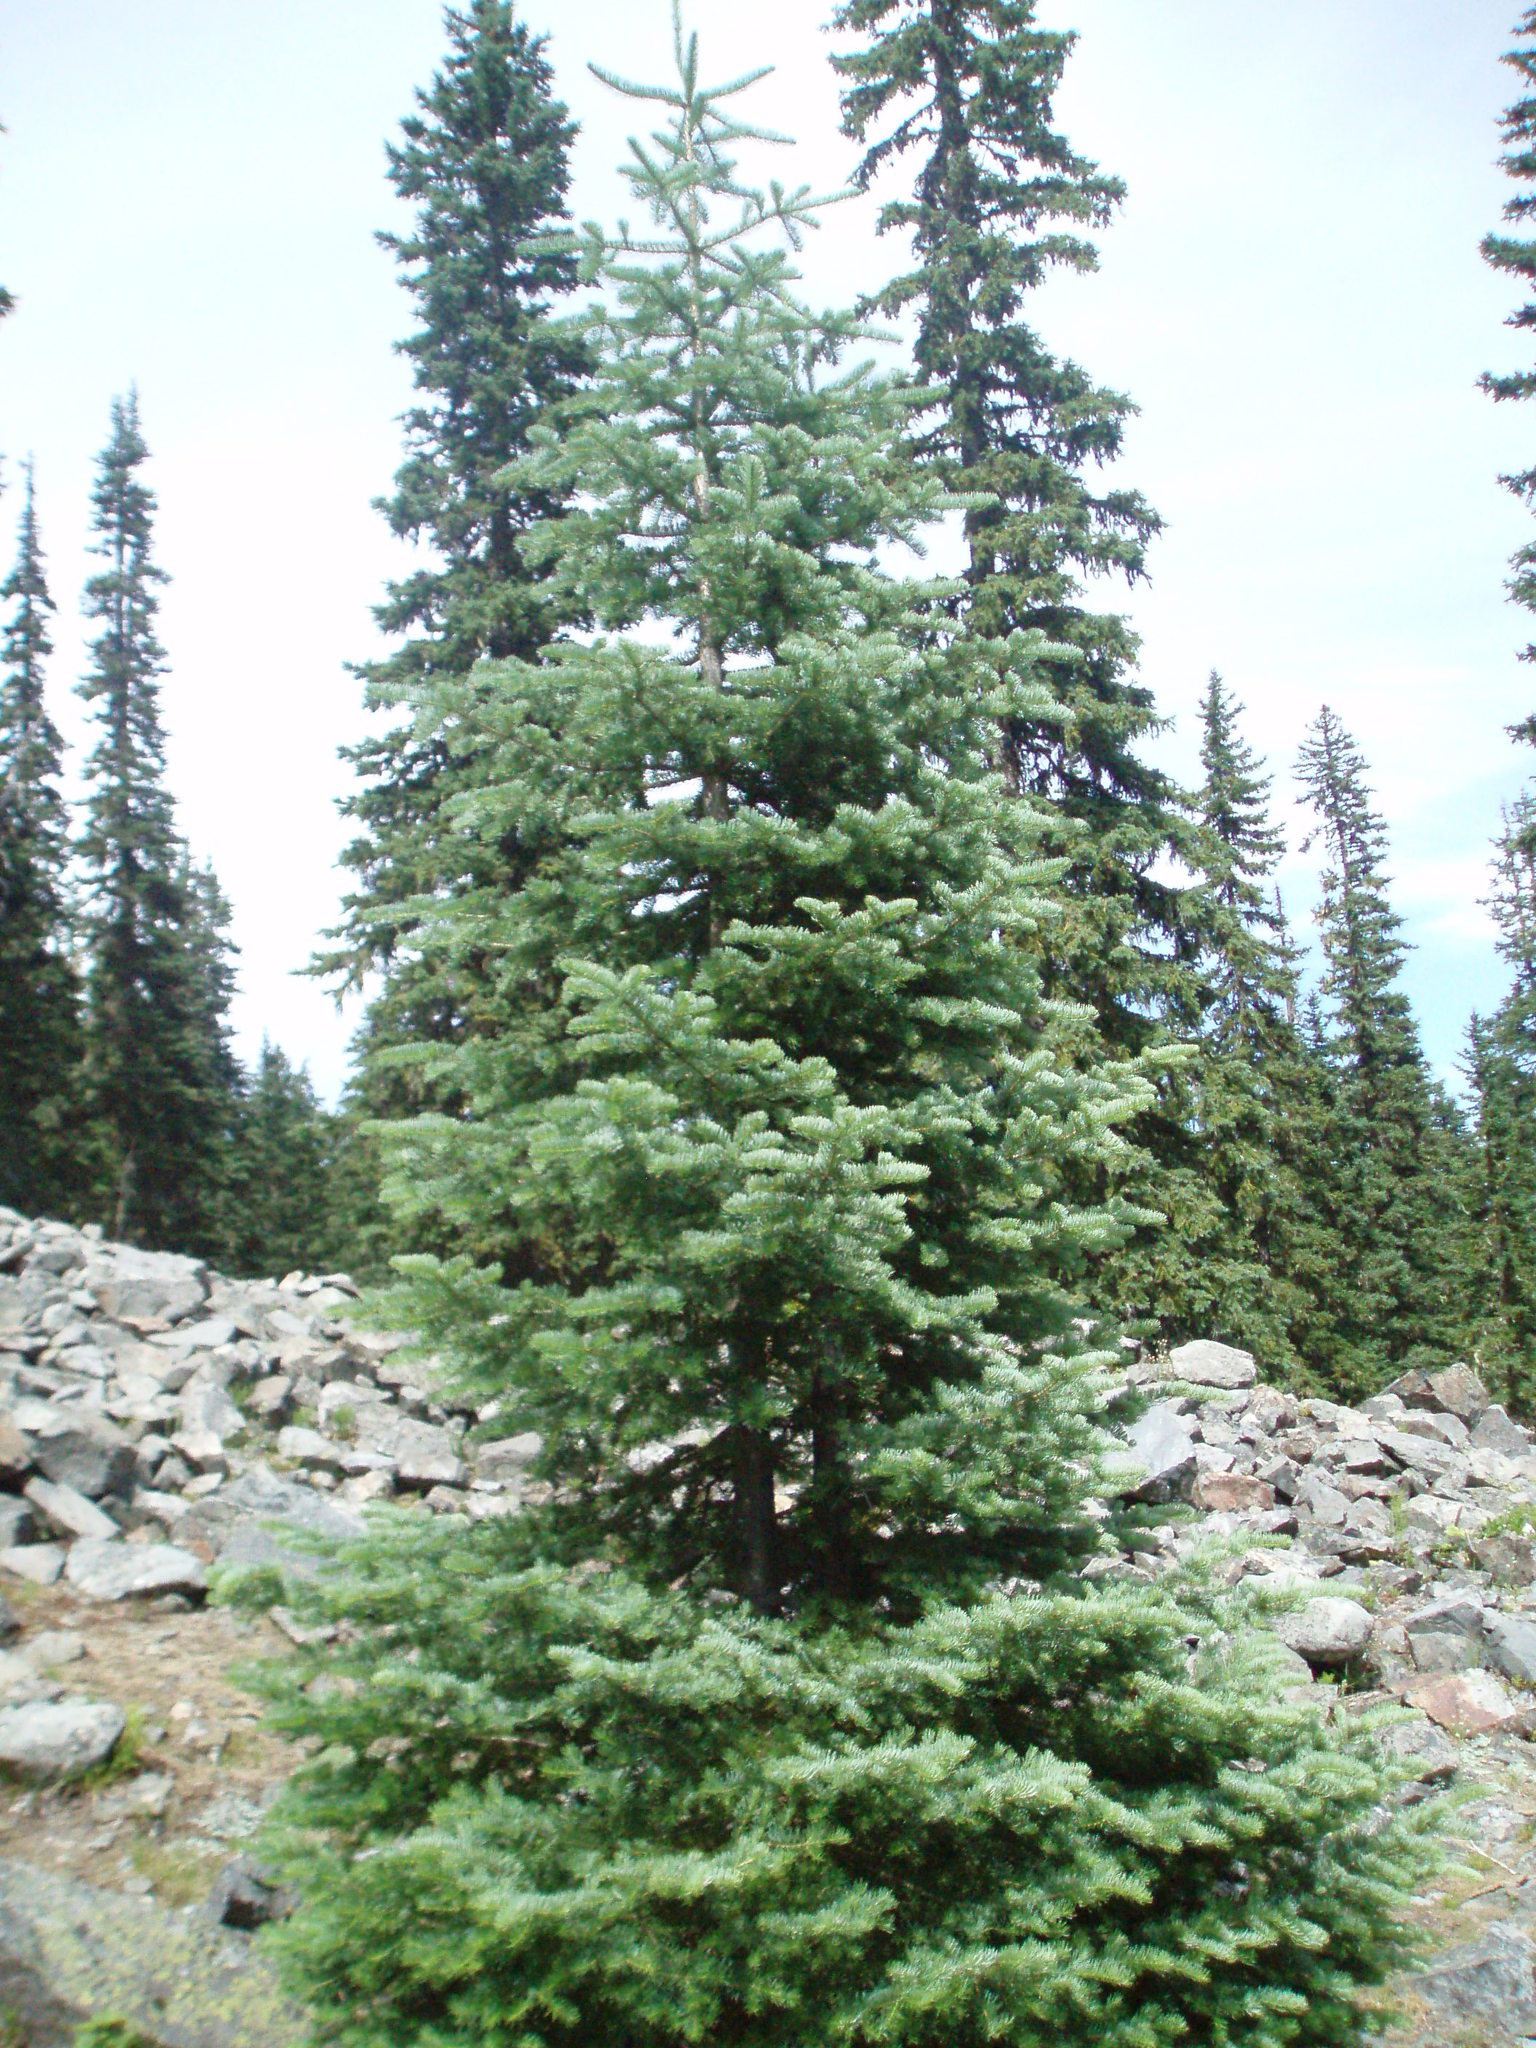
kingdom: Plantae
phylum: Tracheophyta
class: Pinopsida
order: Pinales
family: Pinaceae
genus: Abies
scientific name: Abies lasiocarpa
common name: Subalpine fir
